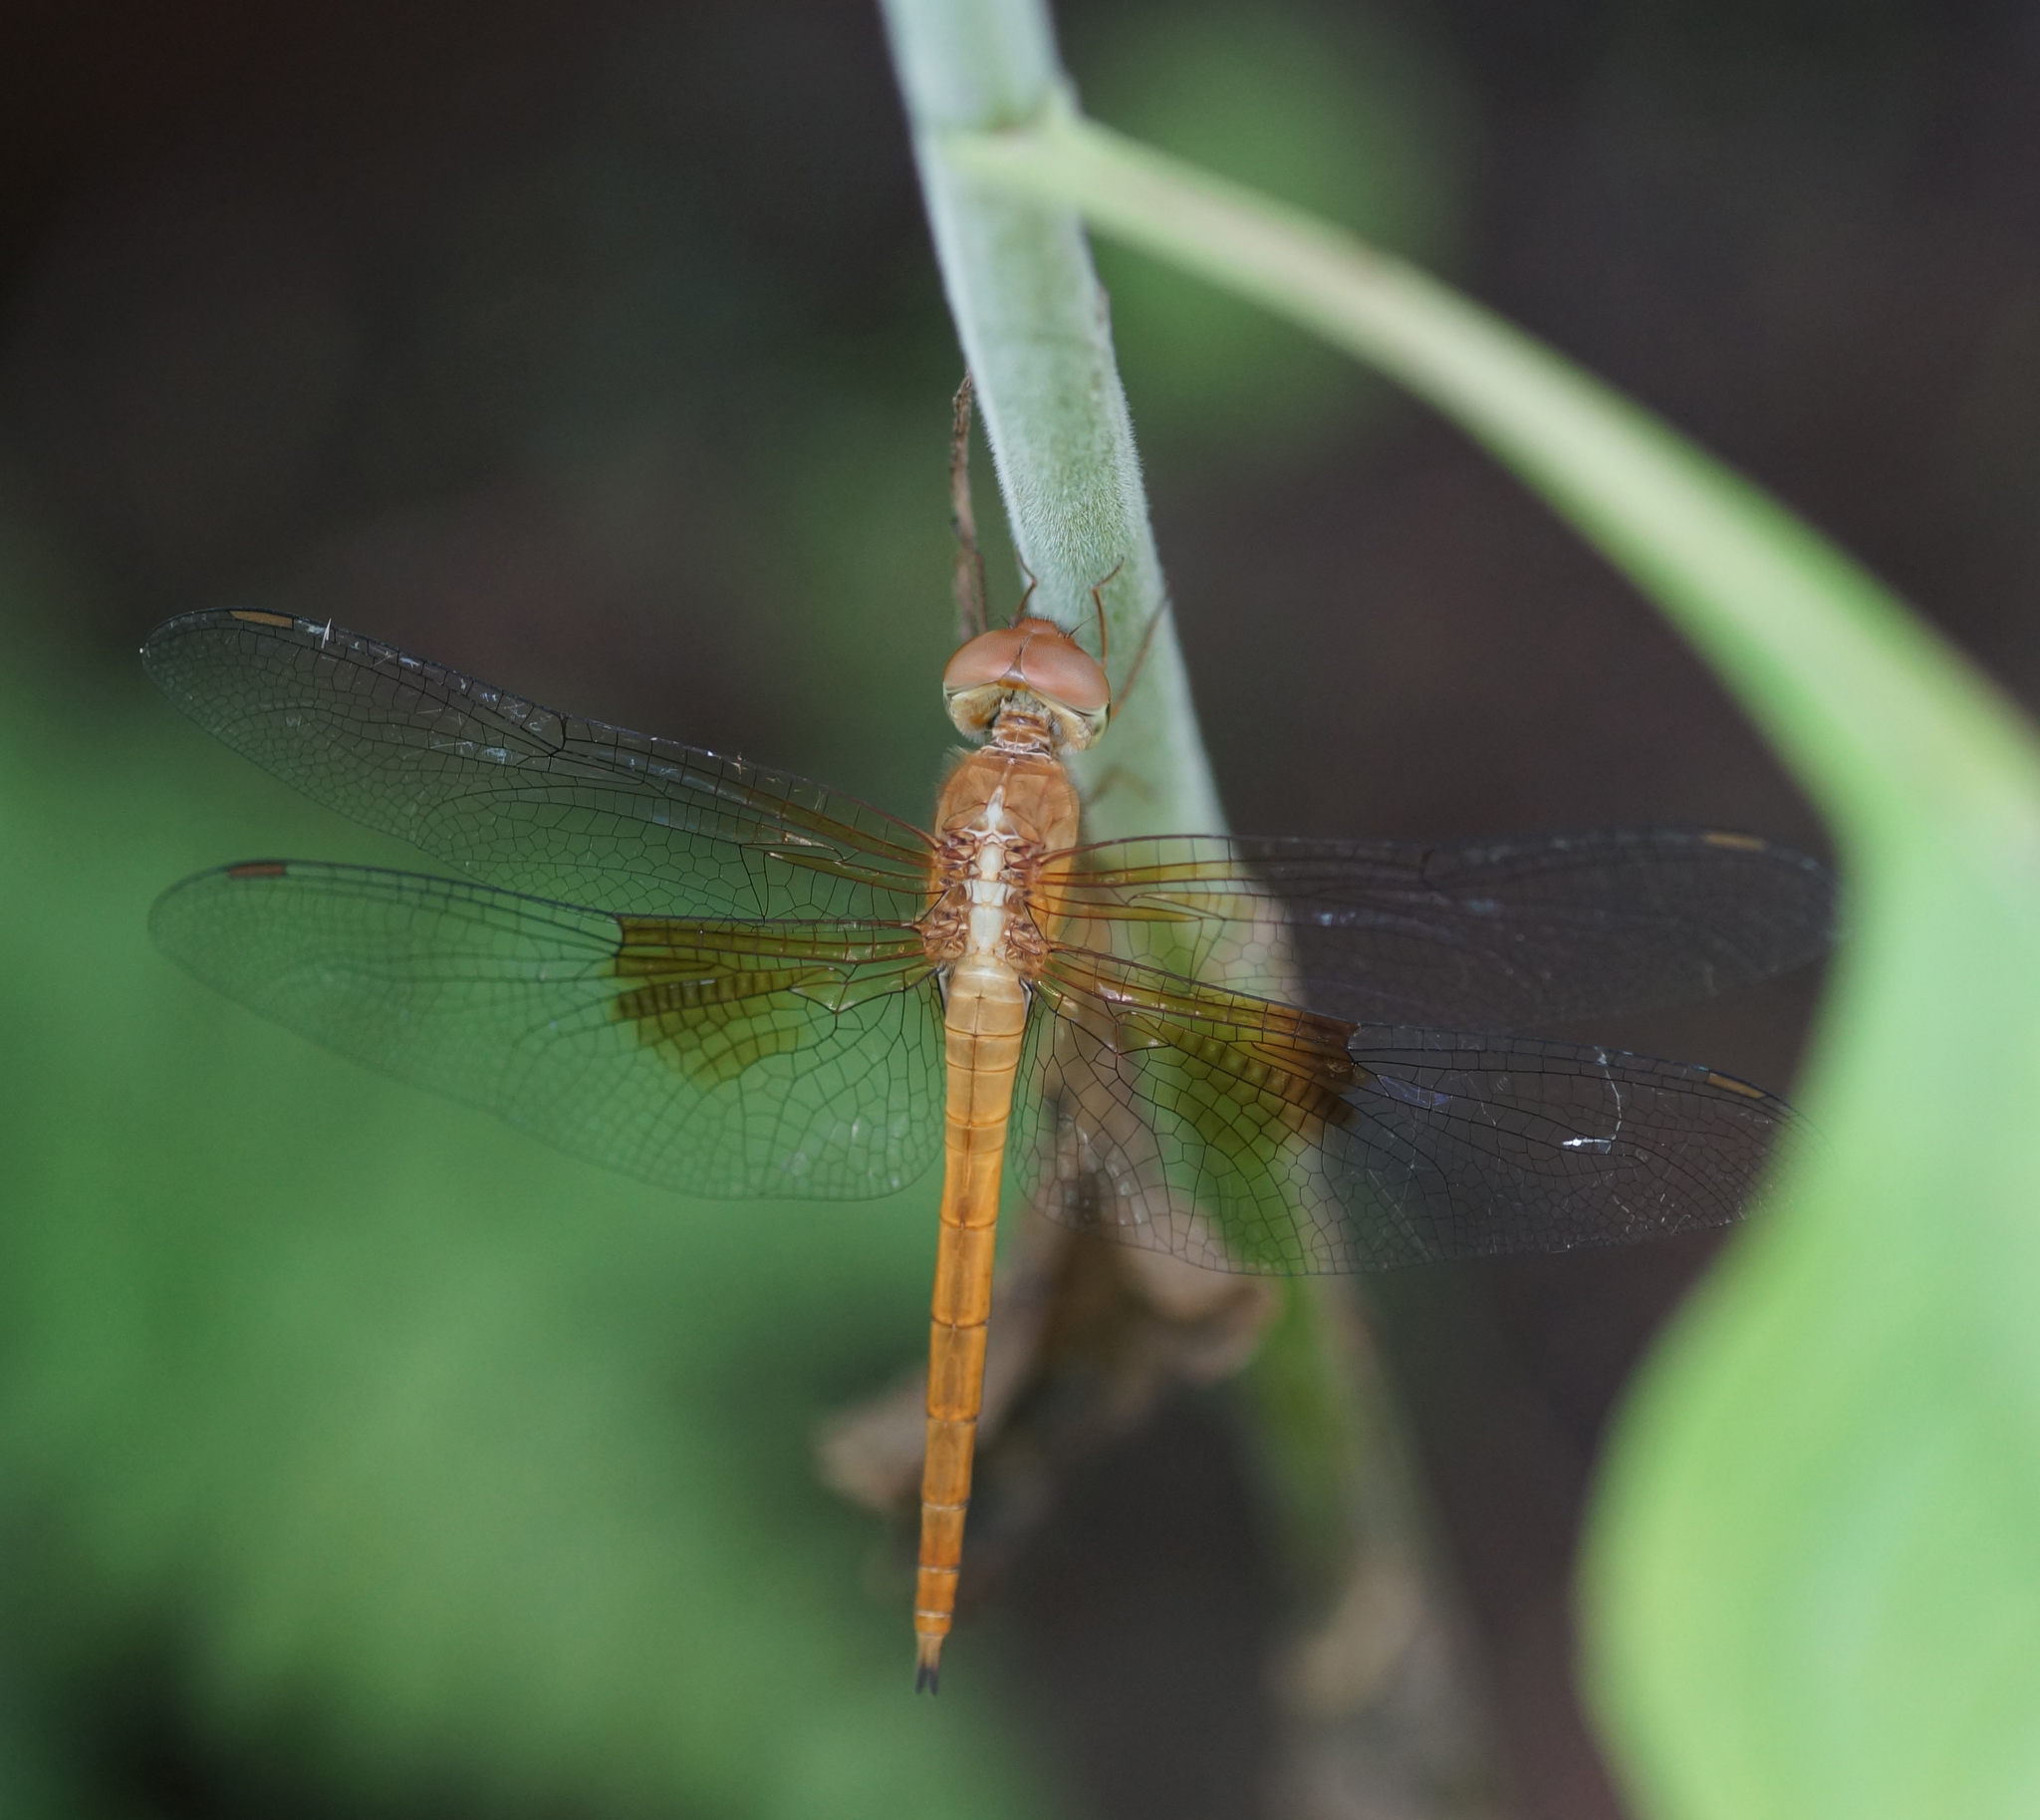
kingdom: Animalia
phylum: Arthropoda
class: Insecta
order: Odonata
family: Libellulidae
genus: Tholymis
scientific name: Tholymis tillarga
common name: Coral-tailed cloud wing
